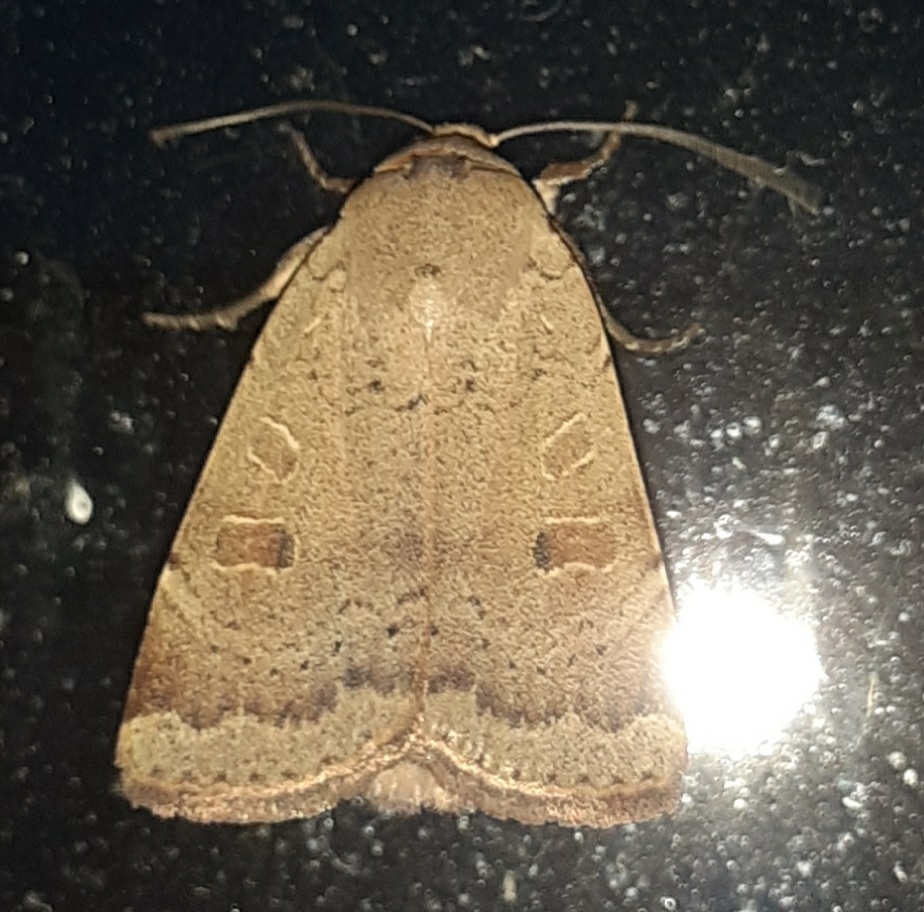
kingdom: Animalia
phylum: Arthropoda
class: Insecta
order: Lepidoptera
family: Noctuidae
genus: Noctua
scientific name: Noctua comes
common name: Lesser yellow underwing
